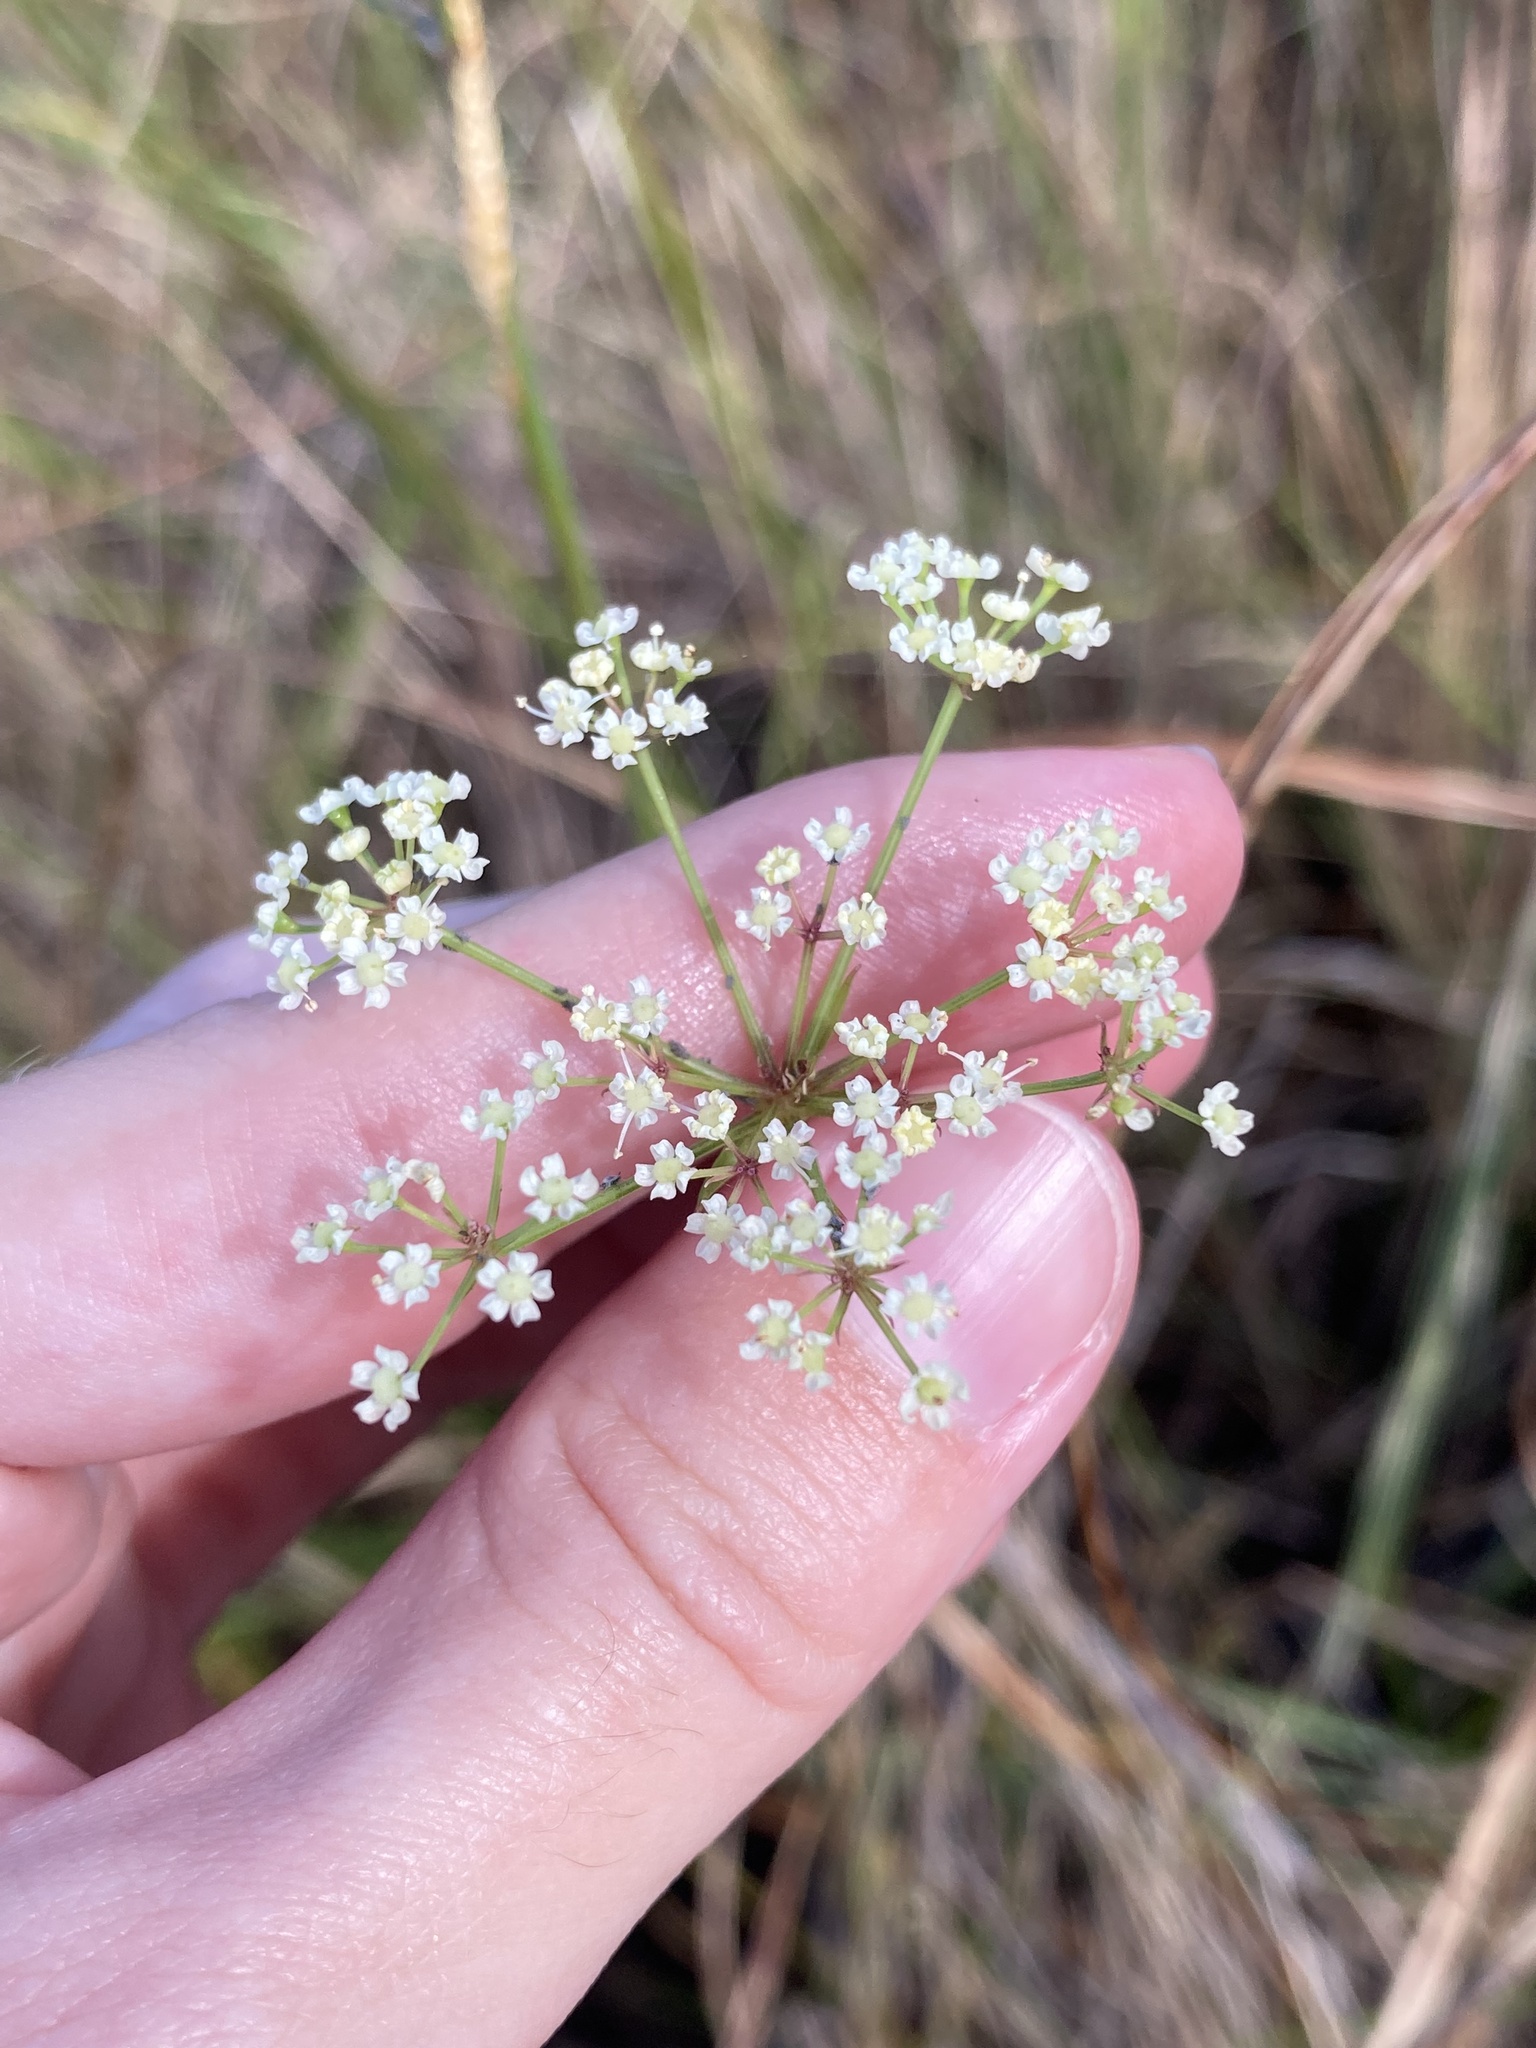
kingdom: Plantae
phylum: Tracheophyta
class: Magnoliopsida
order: Apiales
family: Apiaceae
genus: Tiedemannia
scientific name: Tiedemannia filiformis
